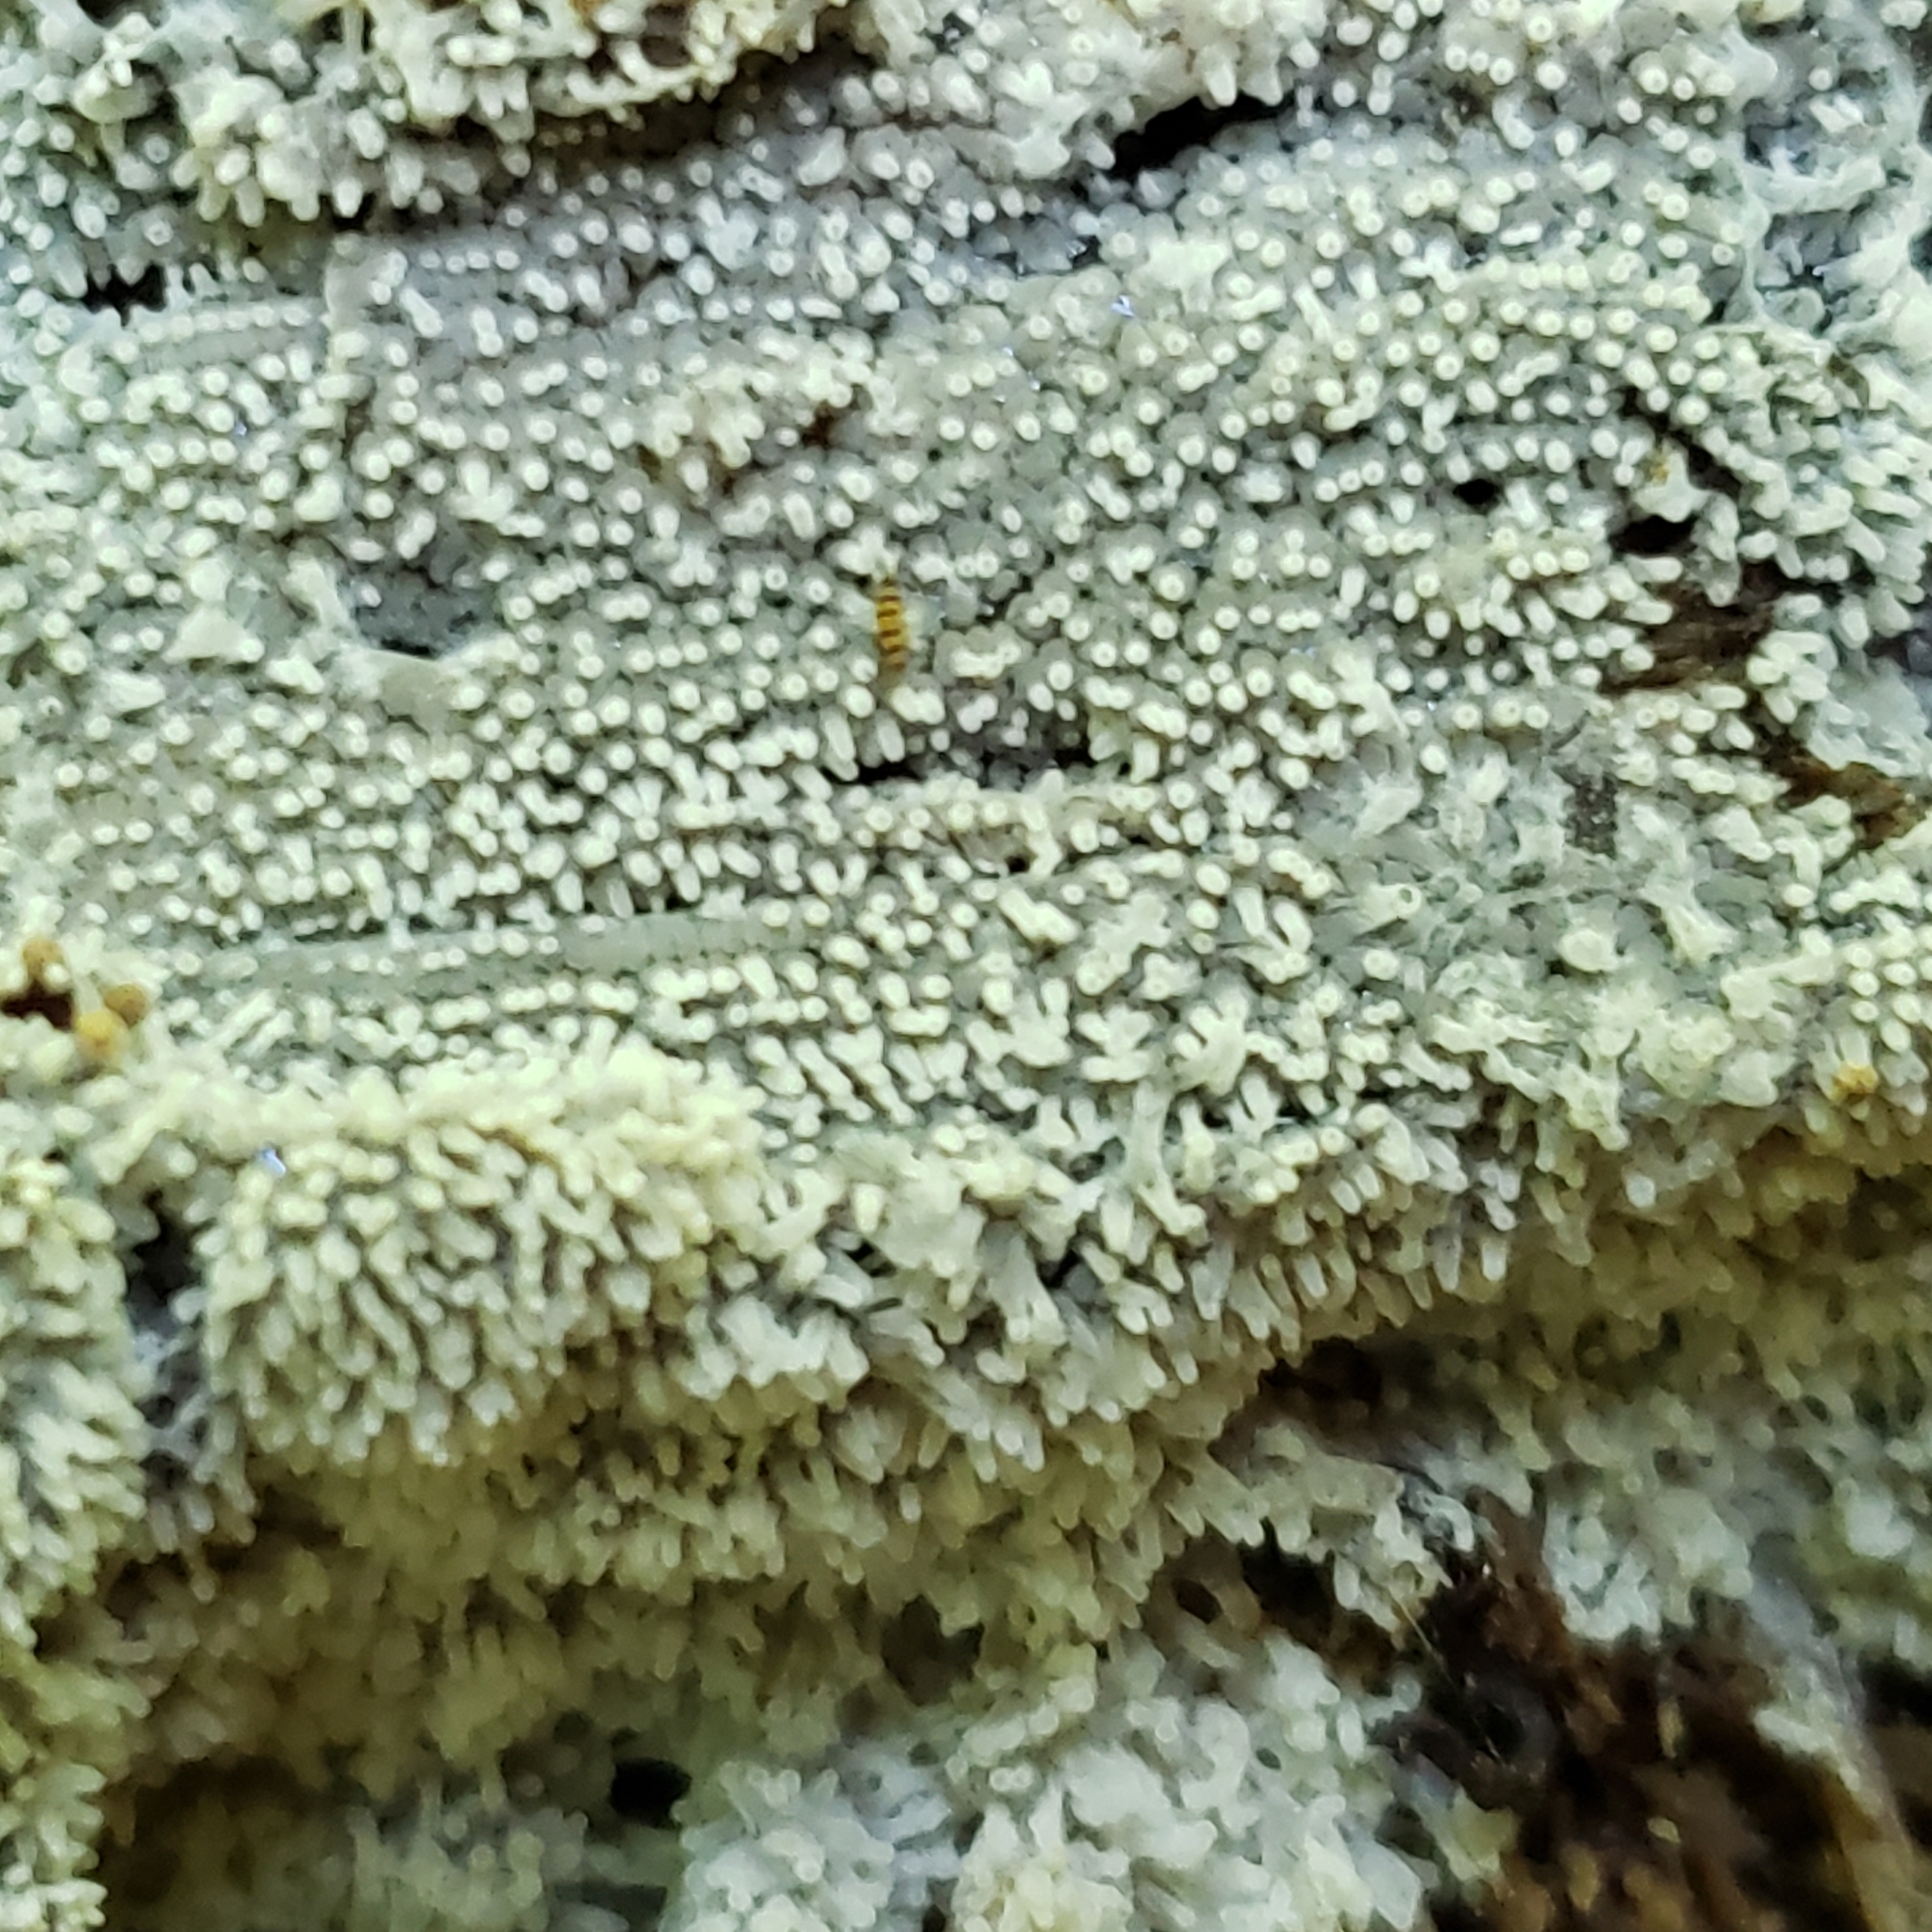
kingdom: Protozoa
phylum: Mycetozoa
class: Protosteliomycetes
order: Ceratiomyxales
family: Ceratiomyxaceae
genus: Ceratiomyxa
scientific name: Ceratiomyxa fruticulosa
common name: Honeycomb coral slime mold
